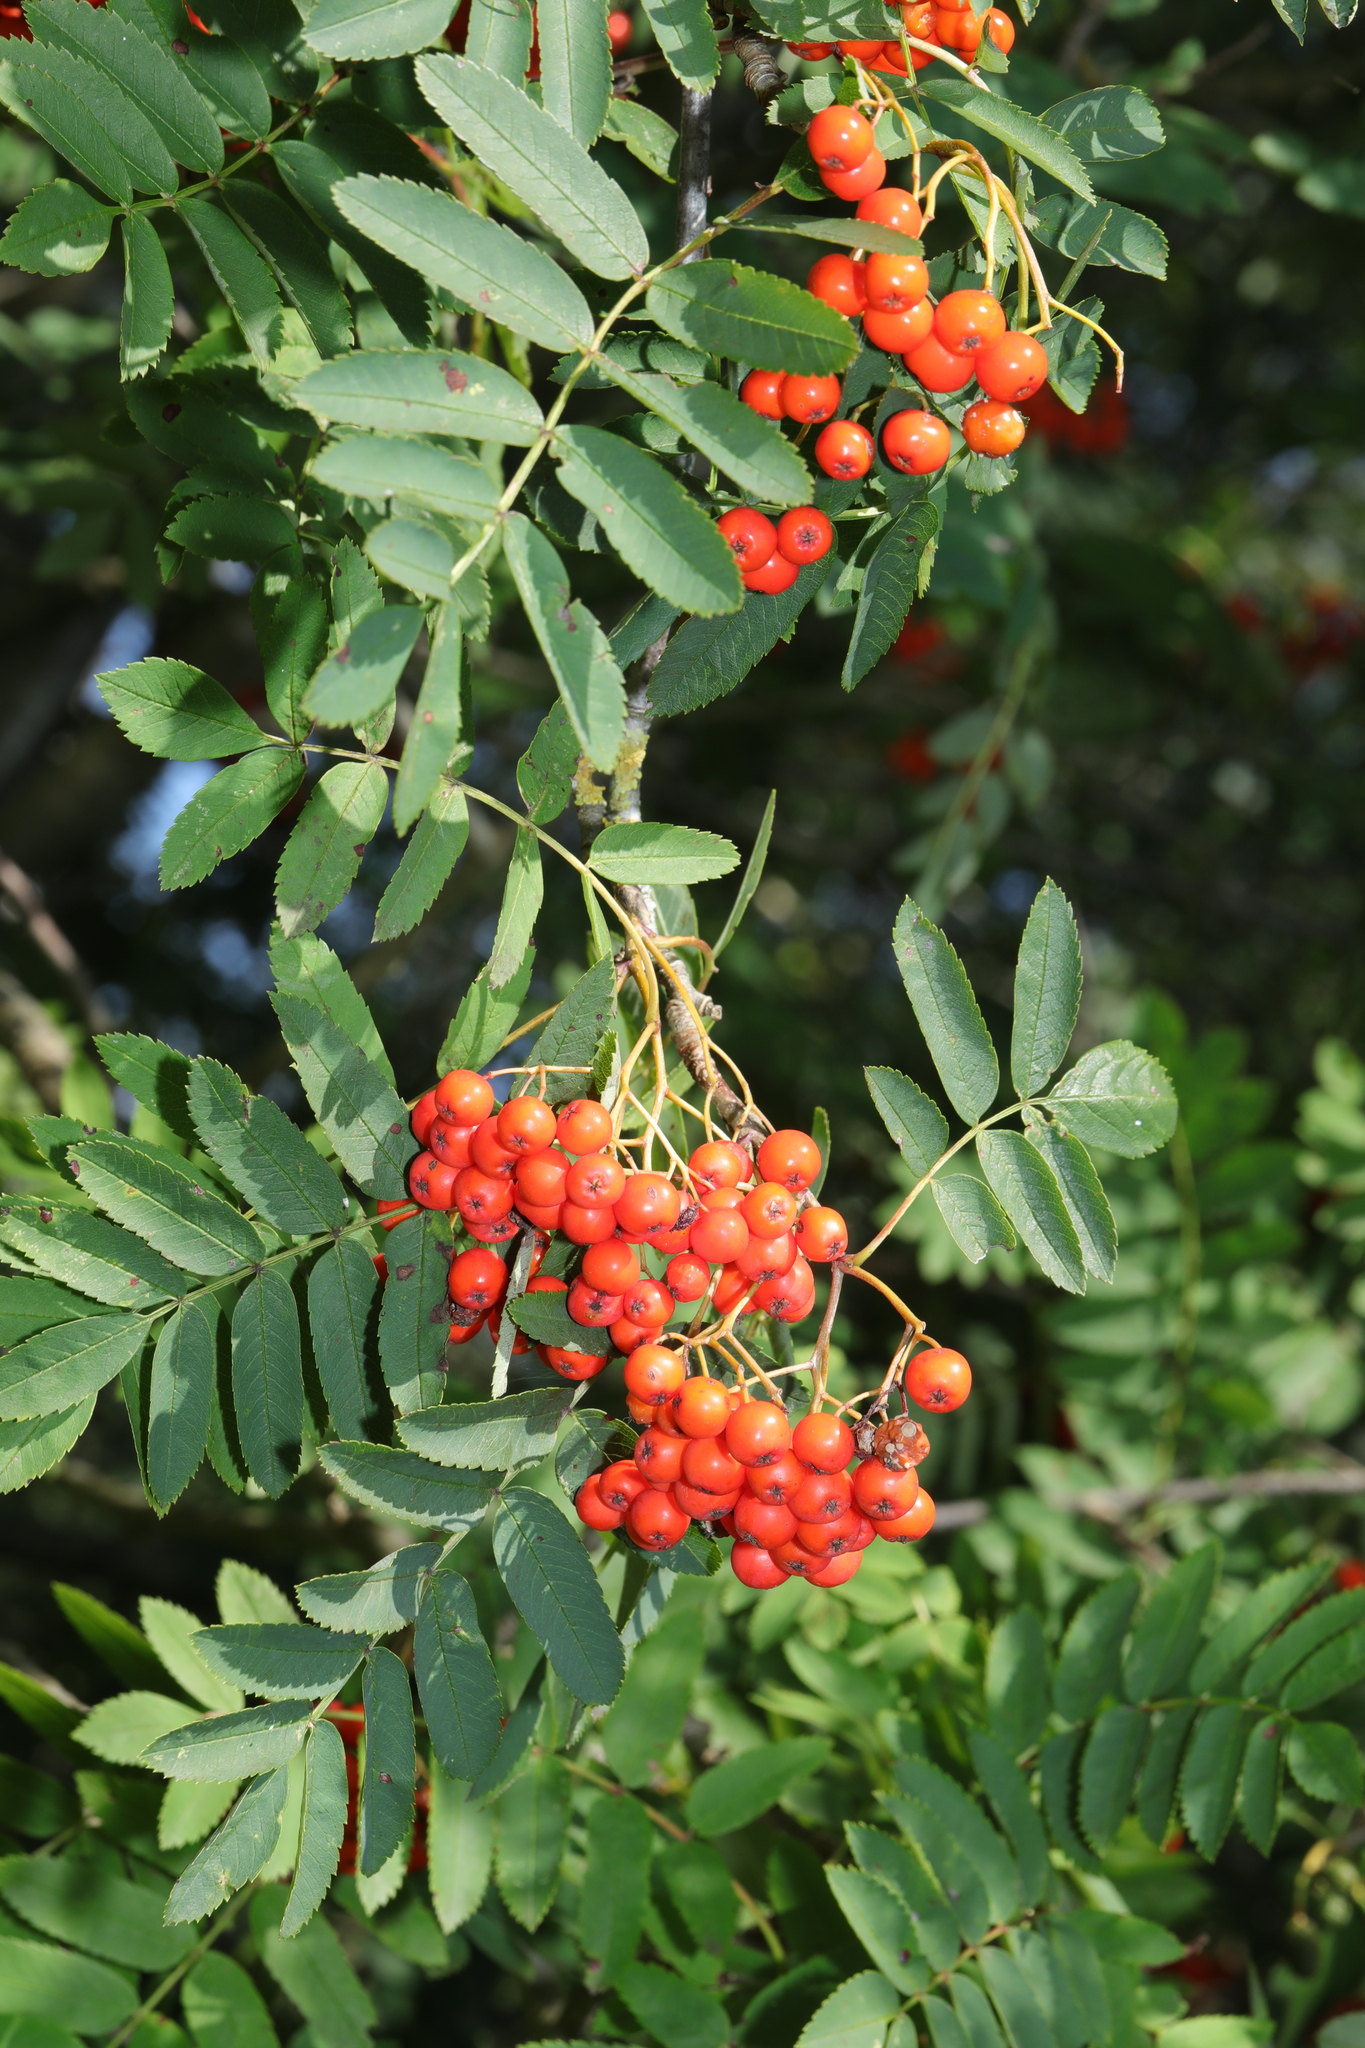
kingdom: Plantae
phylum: Tracheophyta
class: Magnoliopsida
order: Rosales
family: Rosaceae
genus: Sorbus
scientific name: Sorbus aucuparia
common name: Rowan
